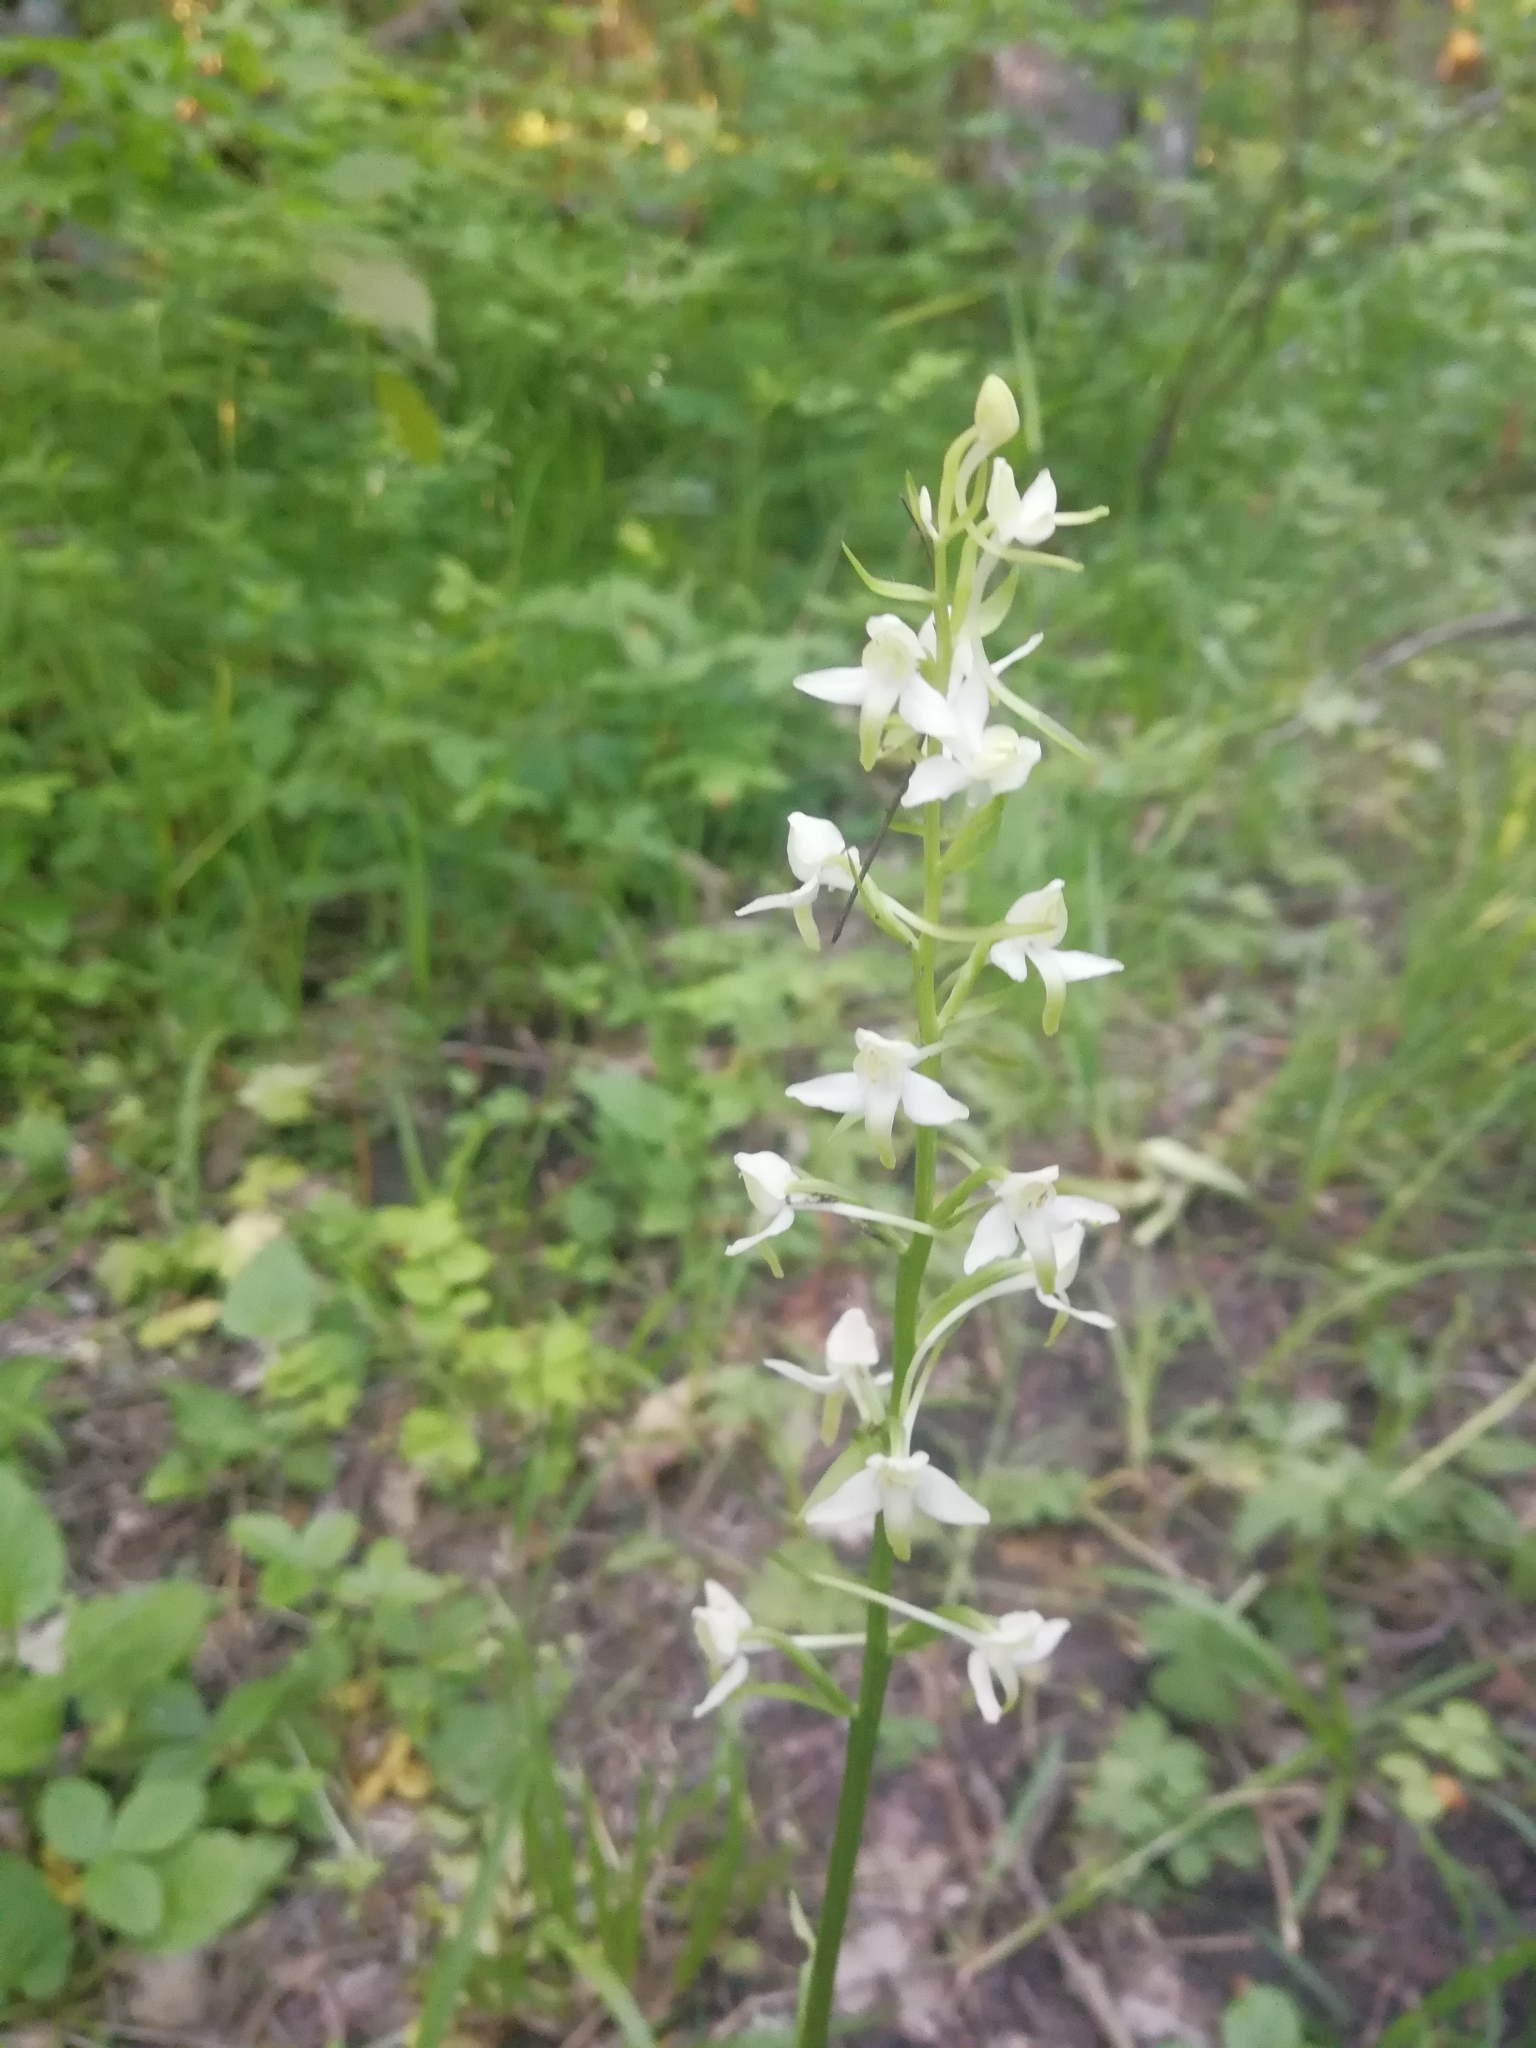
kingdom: Plantae
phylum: Tracheophyta
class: Liliopsida
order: Asparagales
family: Orchidaceae
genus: Platanthera
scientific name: Platanthera chlorantha
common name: Greater butterfly-orchid
